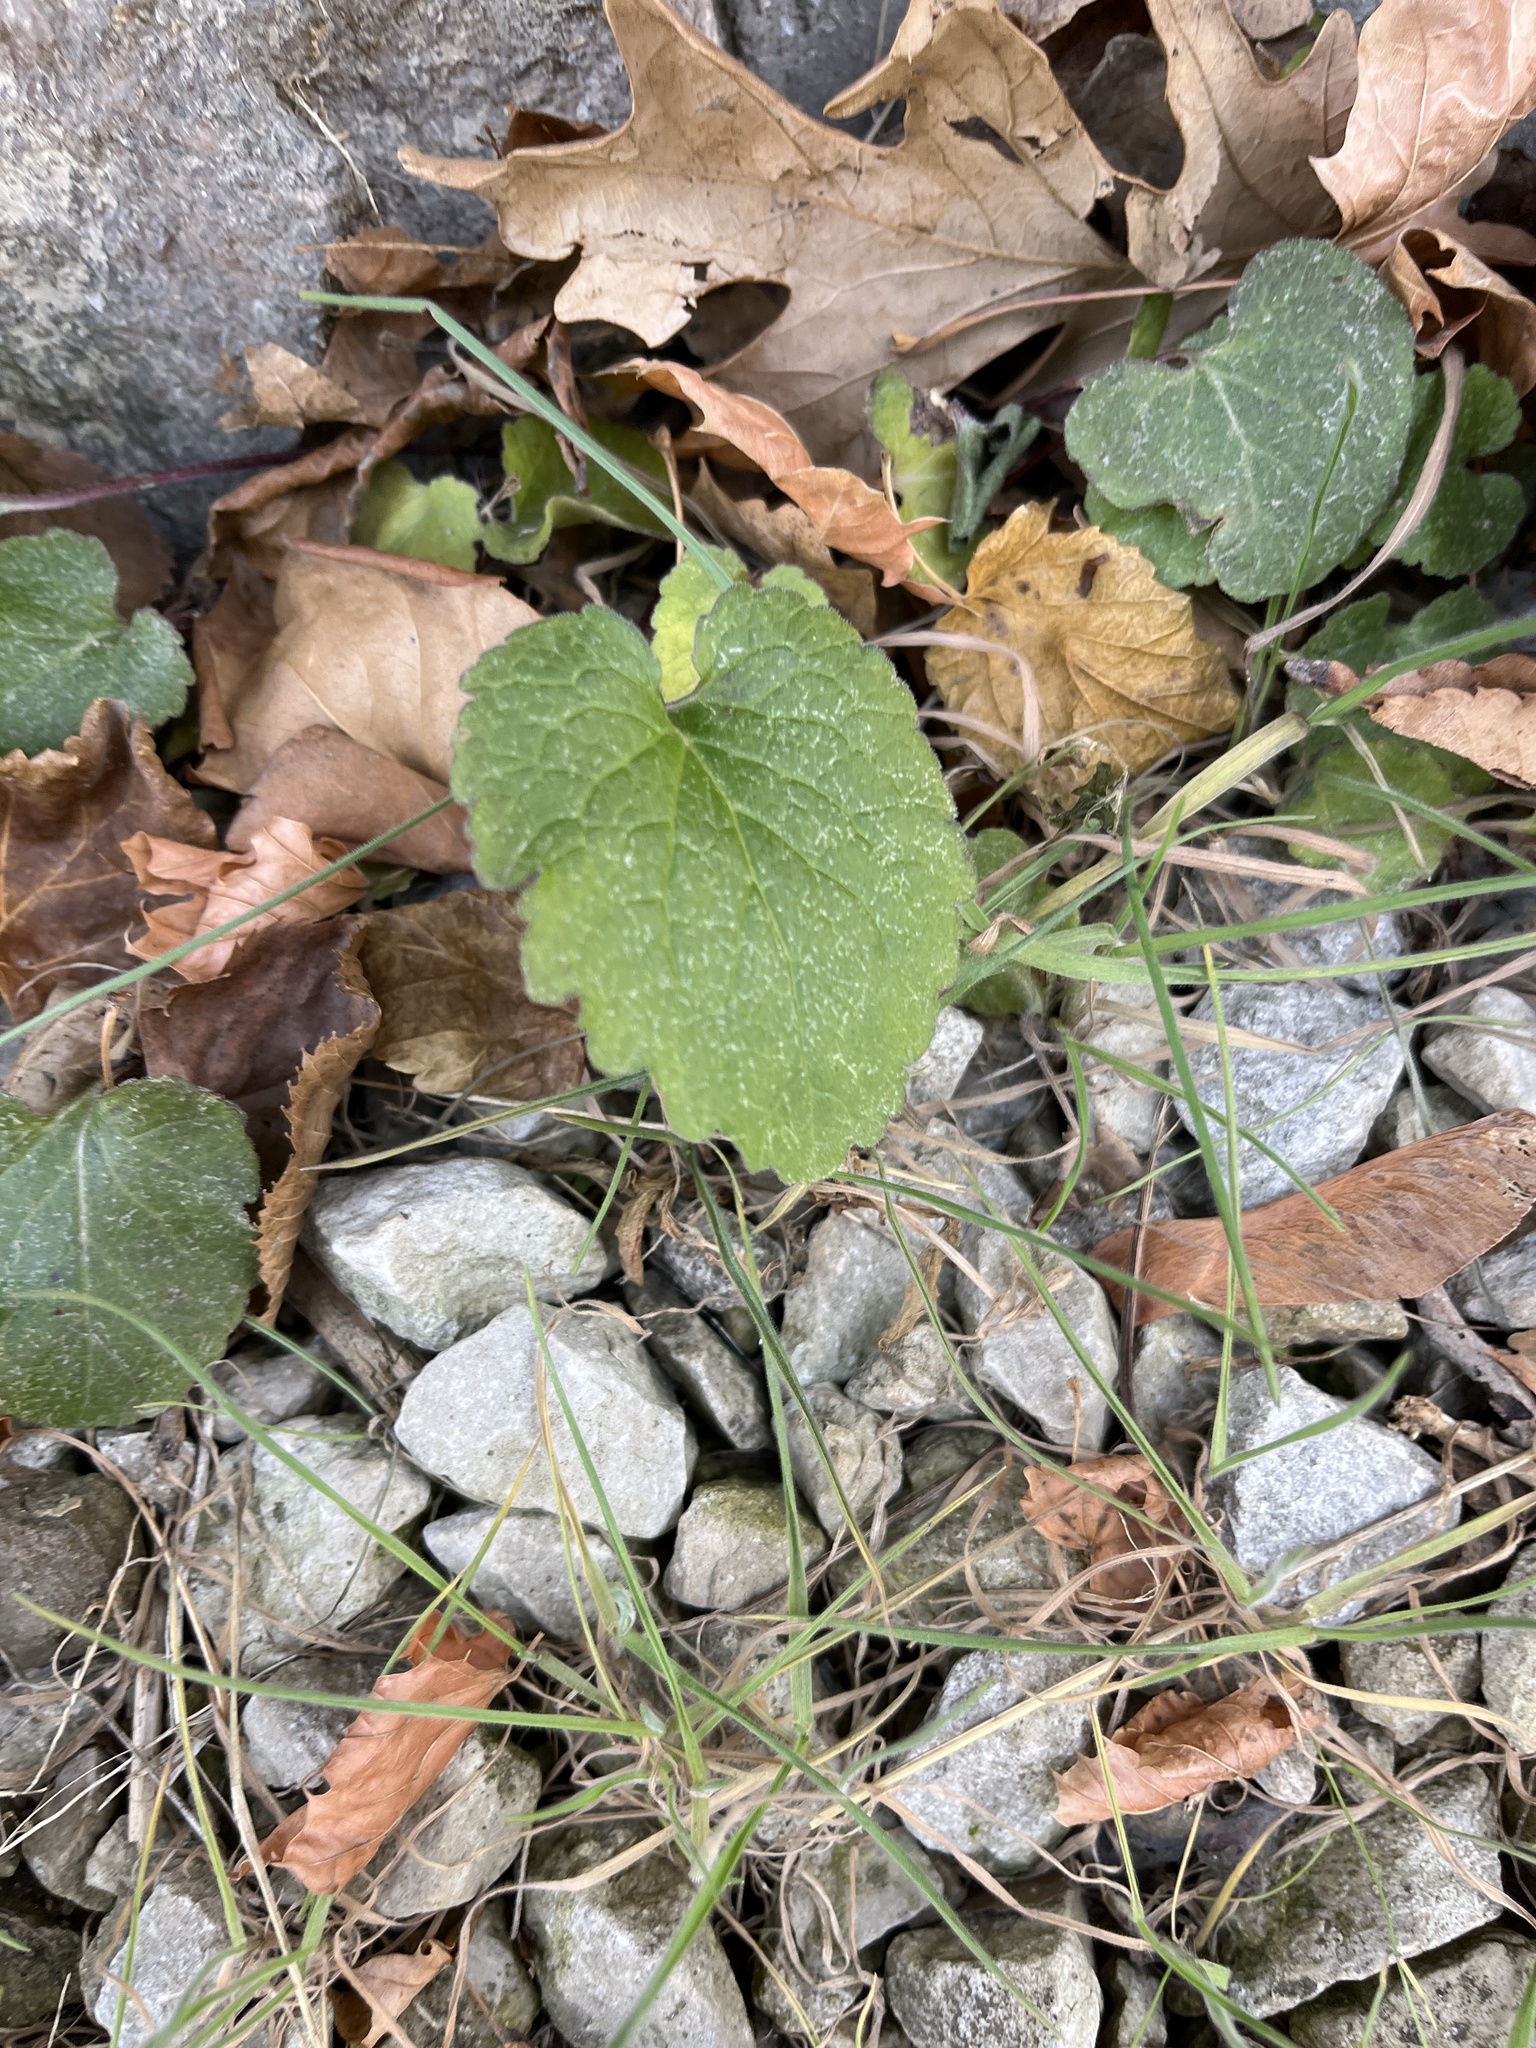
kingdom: Plantae
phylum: Tracheophyta
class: Magnoliopsida
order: Lamiales
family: Lamiaceae
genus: Glechoma
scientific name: Glechoma hederacea
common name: Ground ivy
